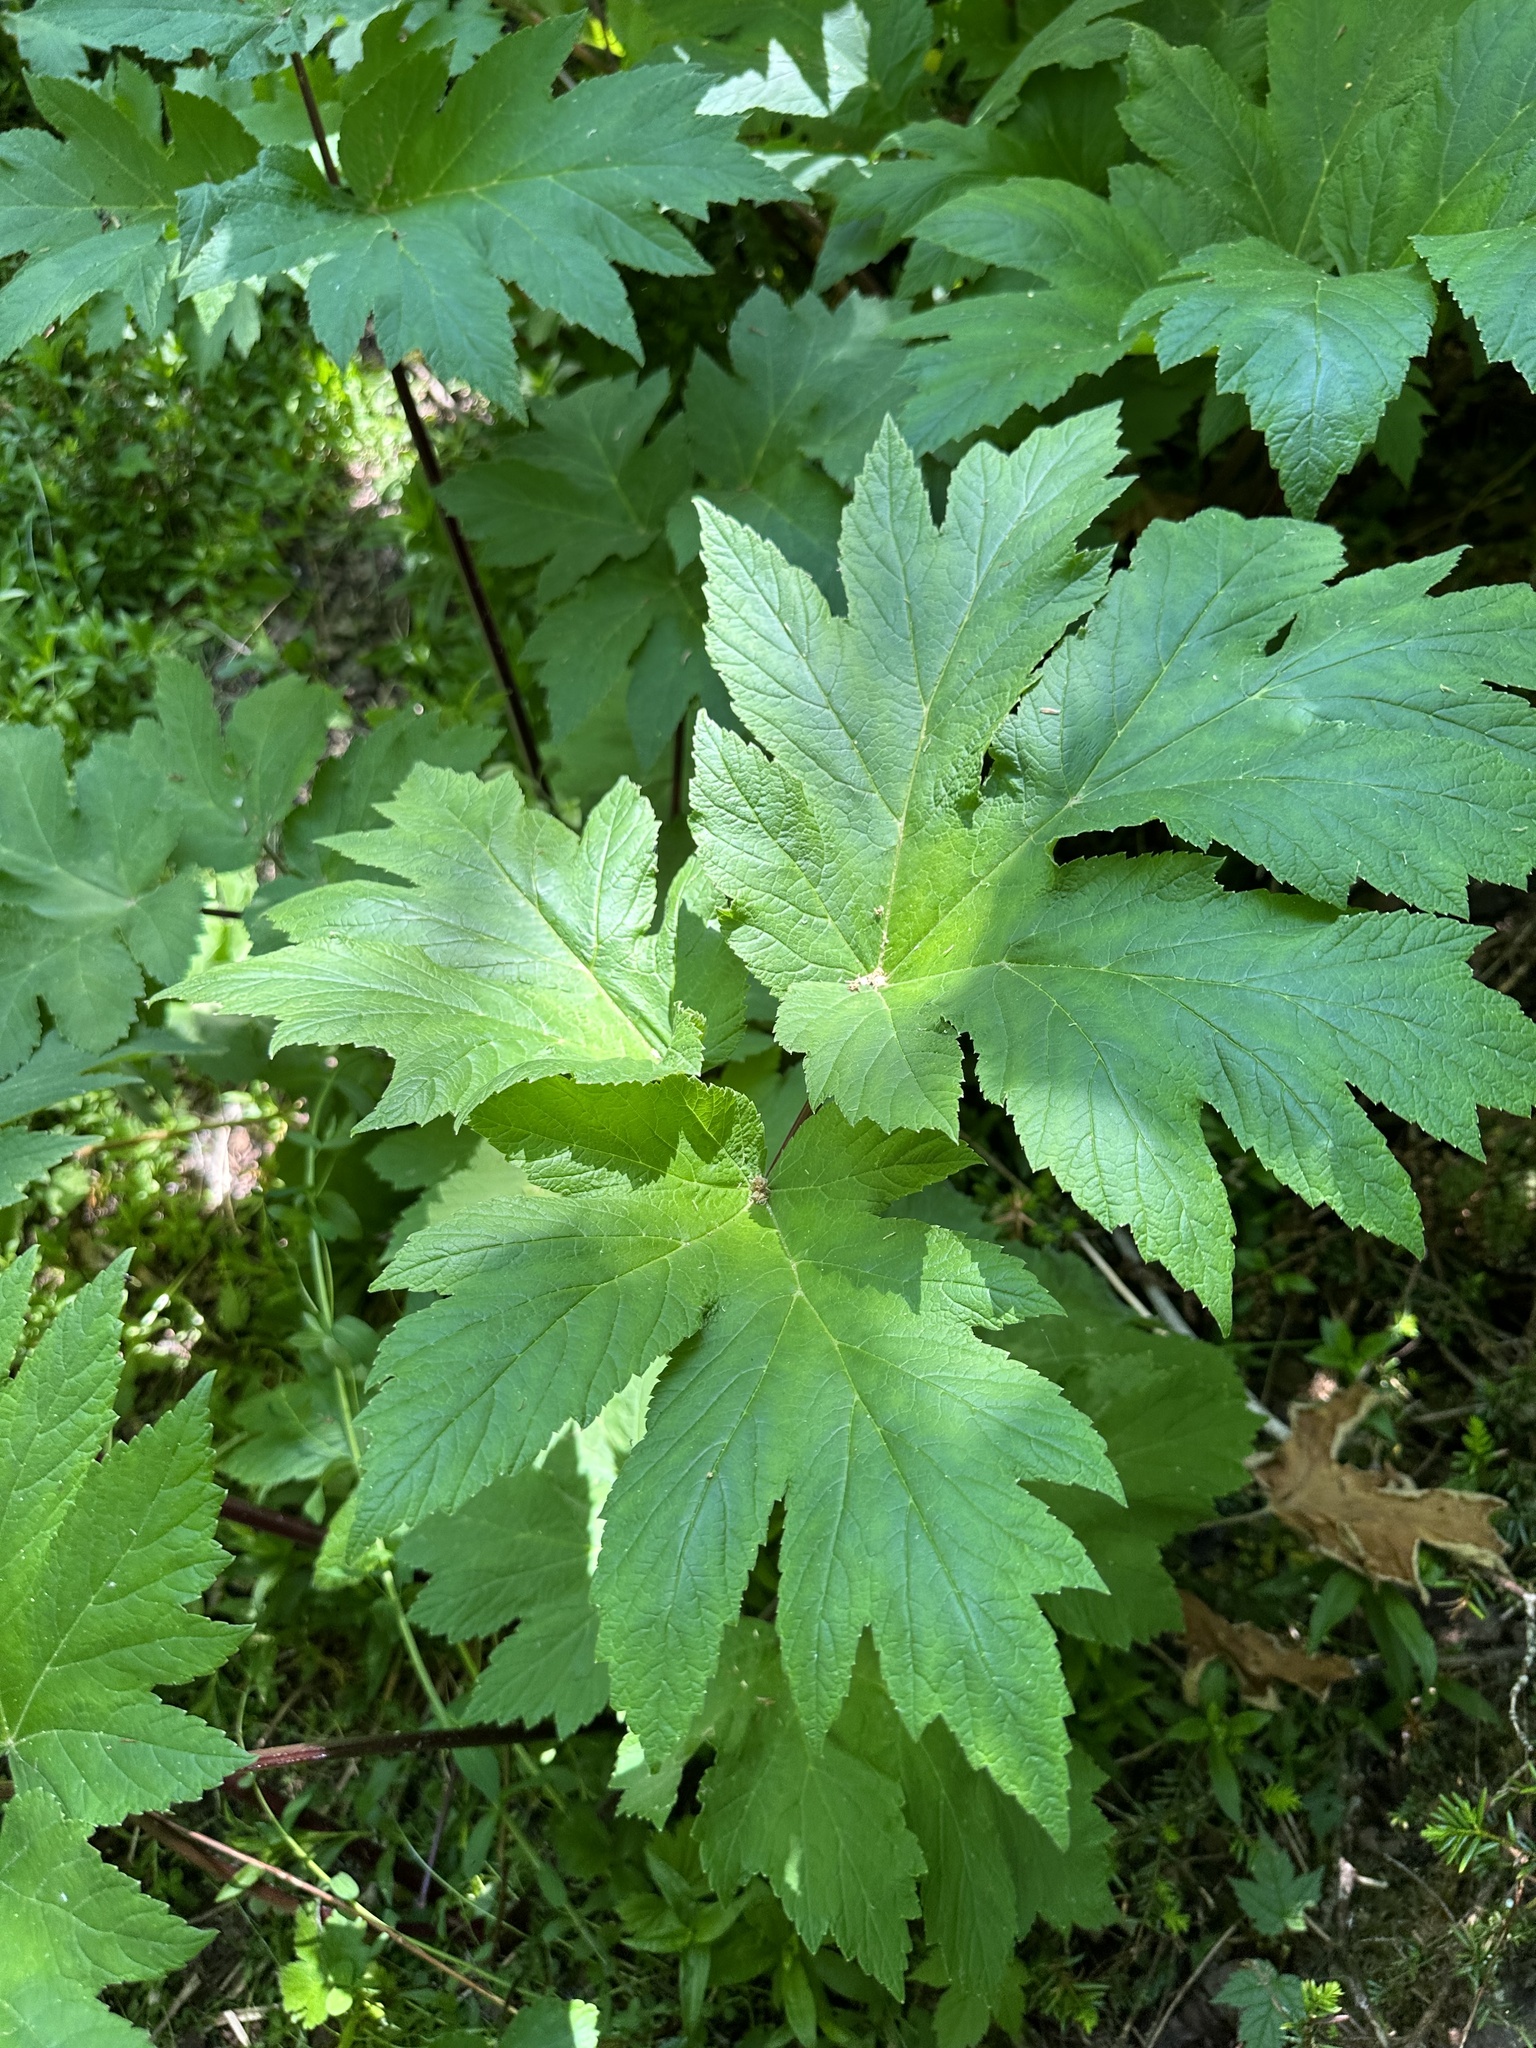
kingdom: Plantae
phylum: Tracheophyta
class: Magnoliopsida
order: Apiales
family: Apiaceae
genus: Heracleum
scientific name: Heracleum maximum
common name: American cow parsnip
